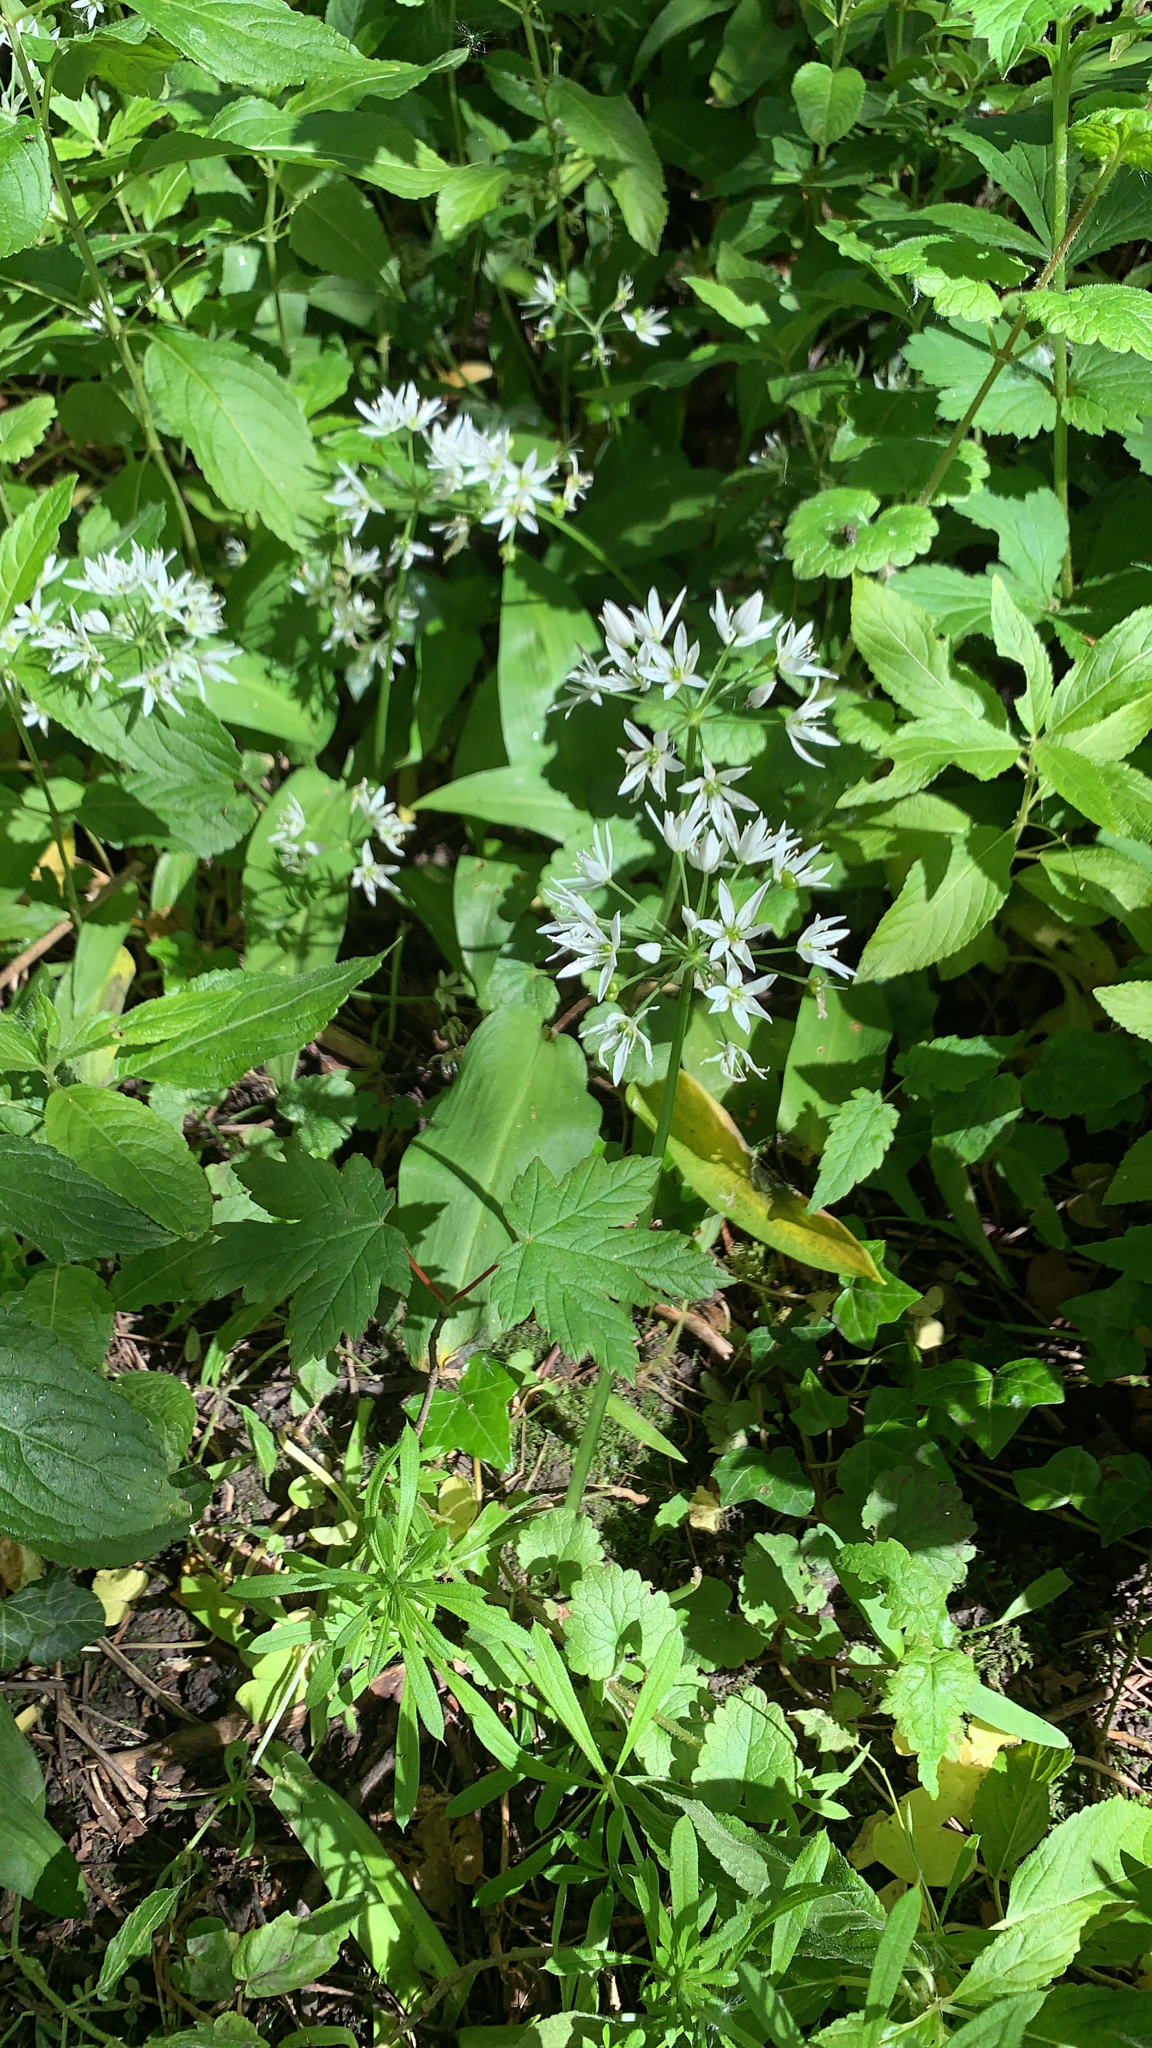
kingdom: Plantae
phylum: Tracheophyta
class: Liliopsida
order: Asparagales
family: Amaryllidaceae
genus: Allium
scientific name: Allium ursinum
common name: Ramsons
